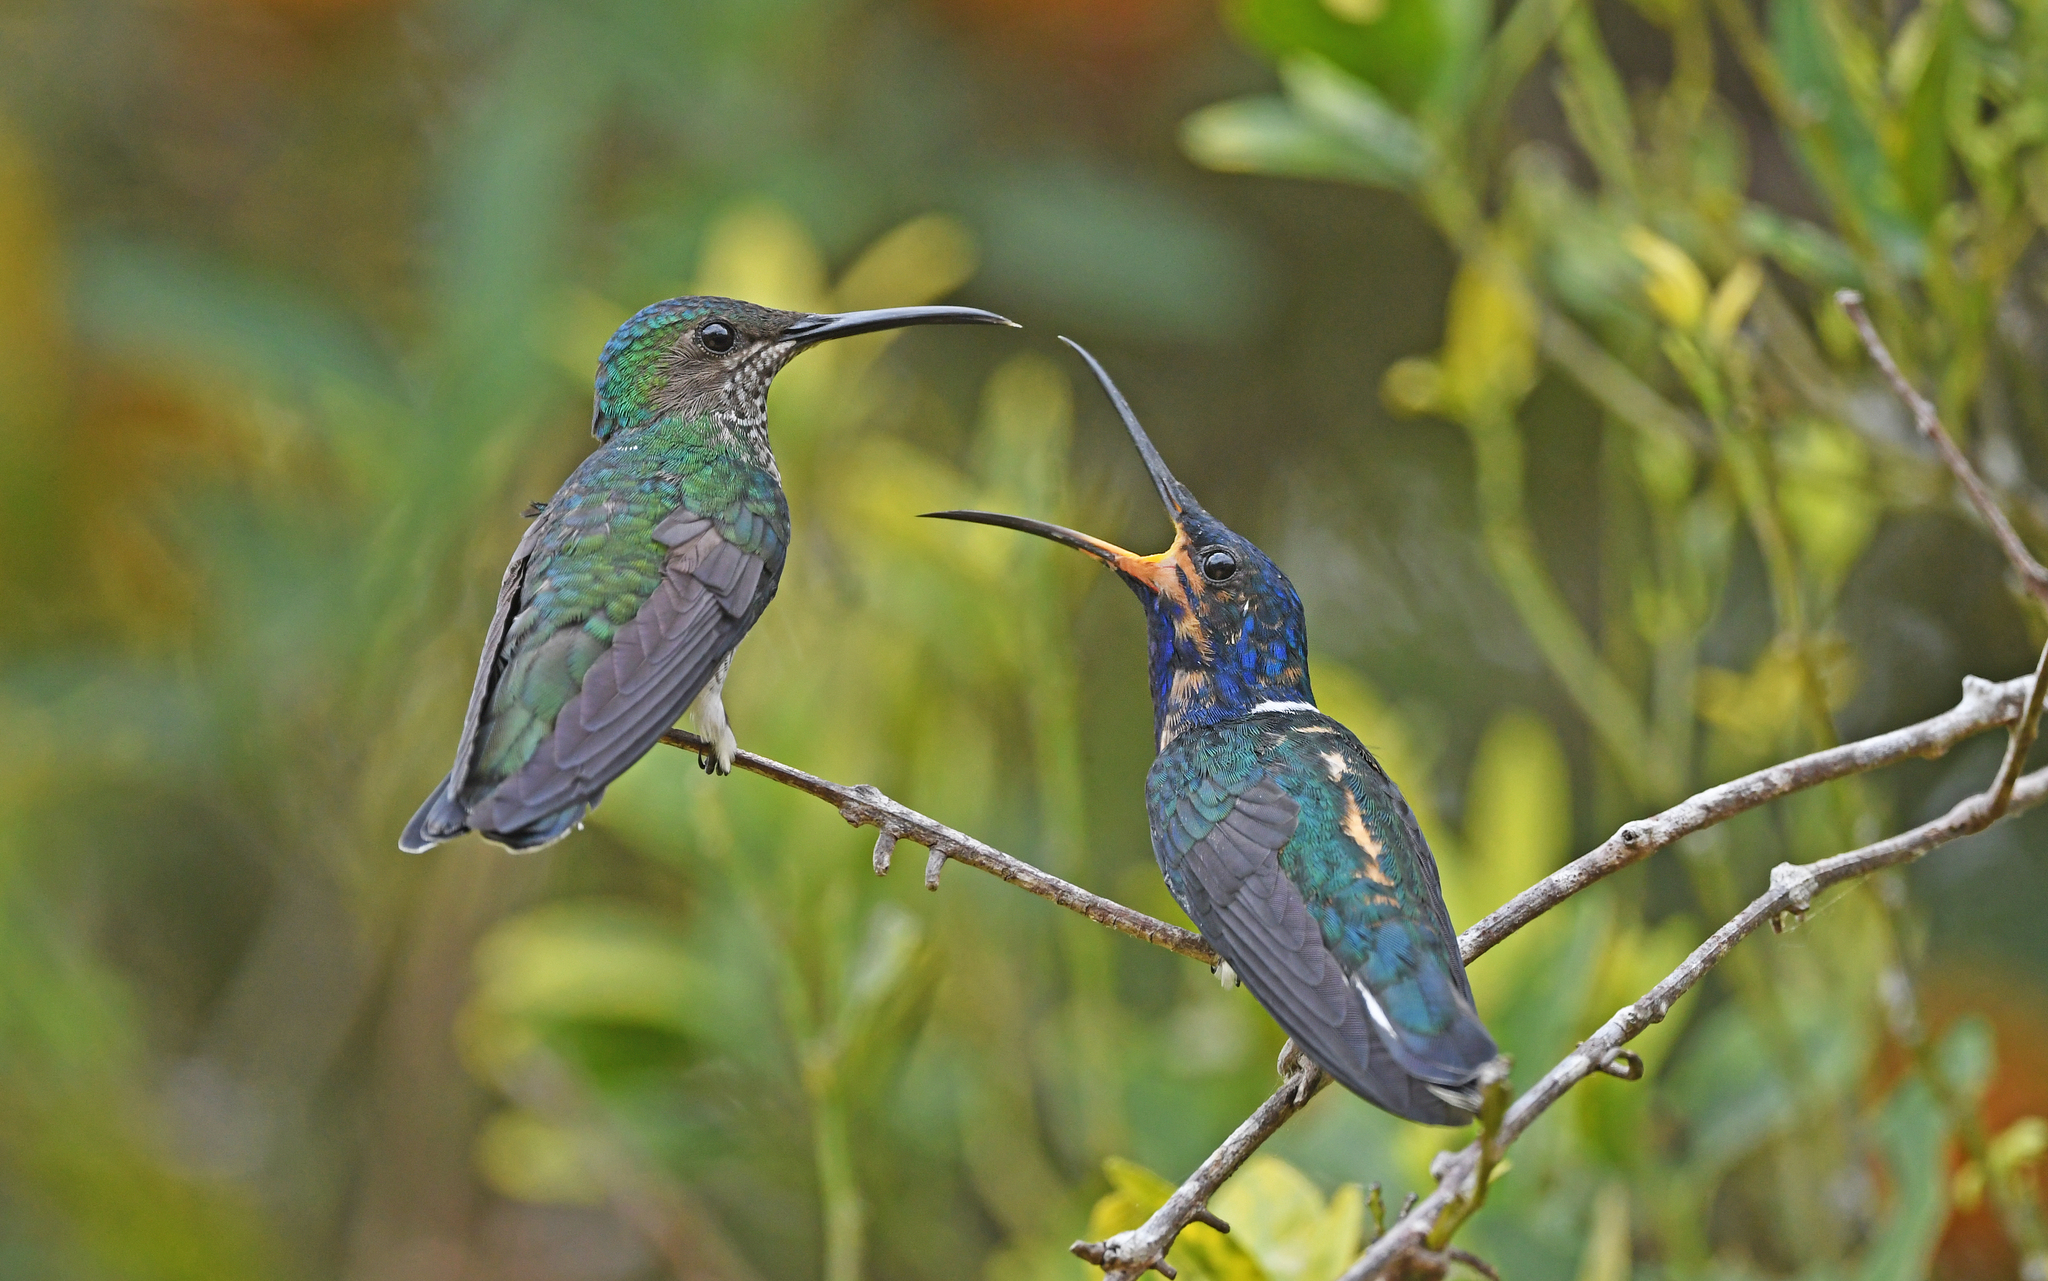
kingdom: Animalia
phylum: Chordata
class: Aves
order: Apodiformes
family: Trochilidae
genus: Florisuga
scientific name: Florisuga mellivora
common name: White-necked jacobin
